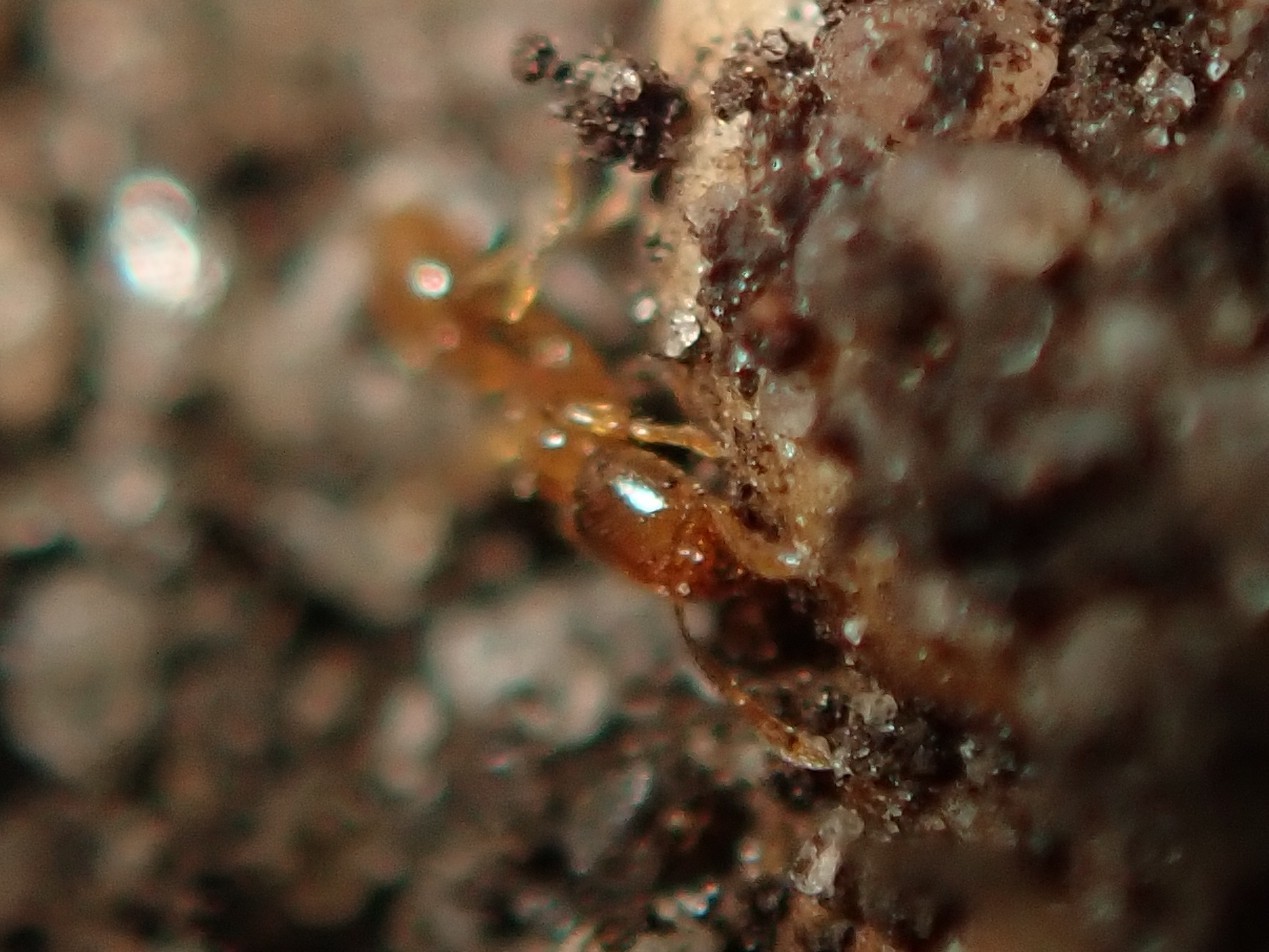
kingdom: Animalia
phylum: Arthropoda
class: Insecta
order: Hymenoptera
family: Formicidae
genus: Solenopsis
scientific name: Solenopsis fugax
